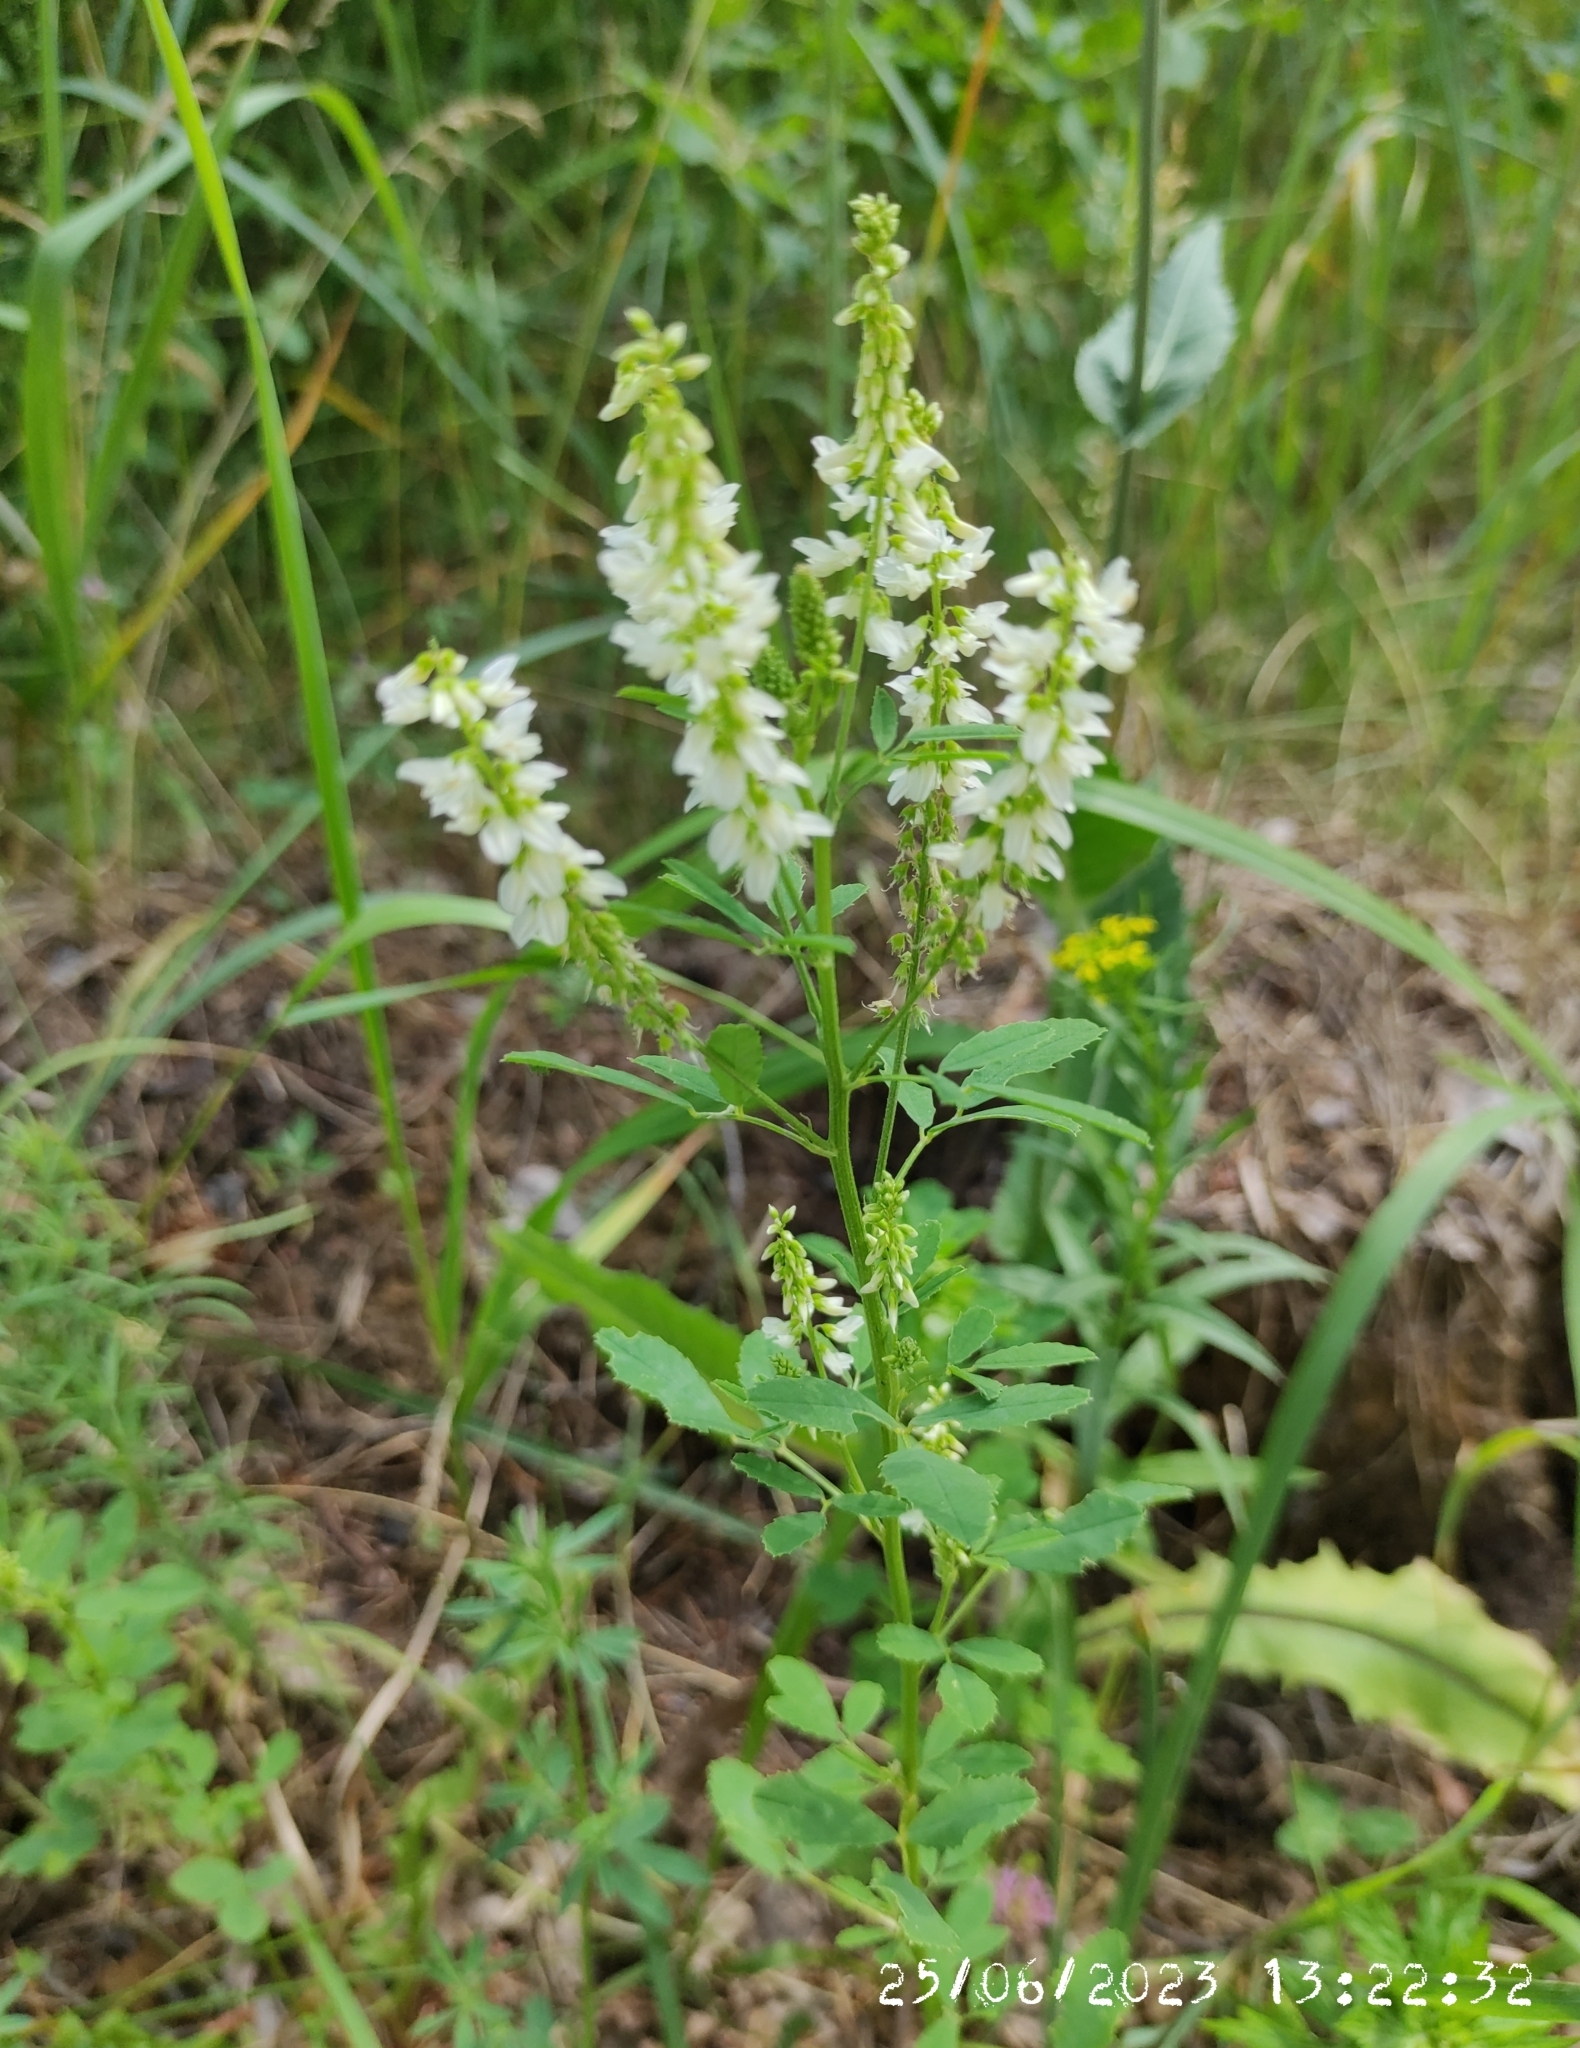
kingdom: Plantae
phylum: Tracheophyta
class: Magnoliopsida
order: Fabales
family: Fabaceae
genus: Melilotus
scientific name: Melilotus albus
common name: White melilot
